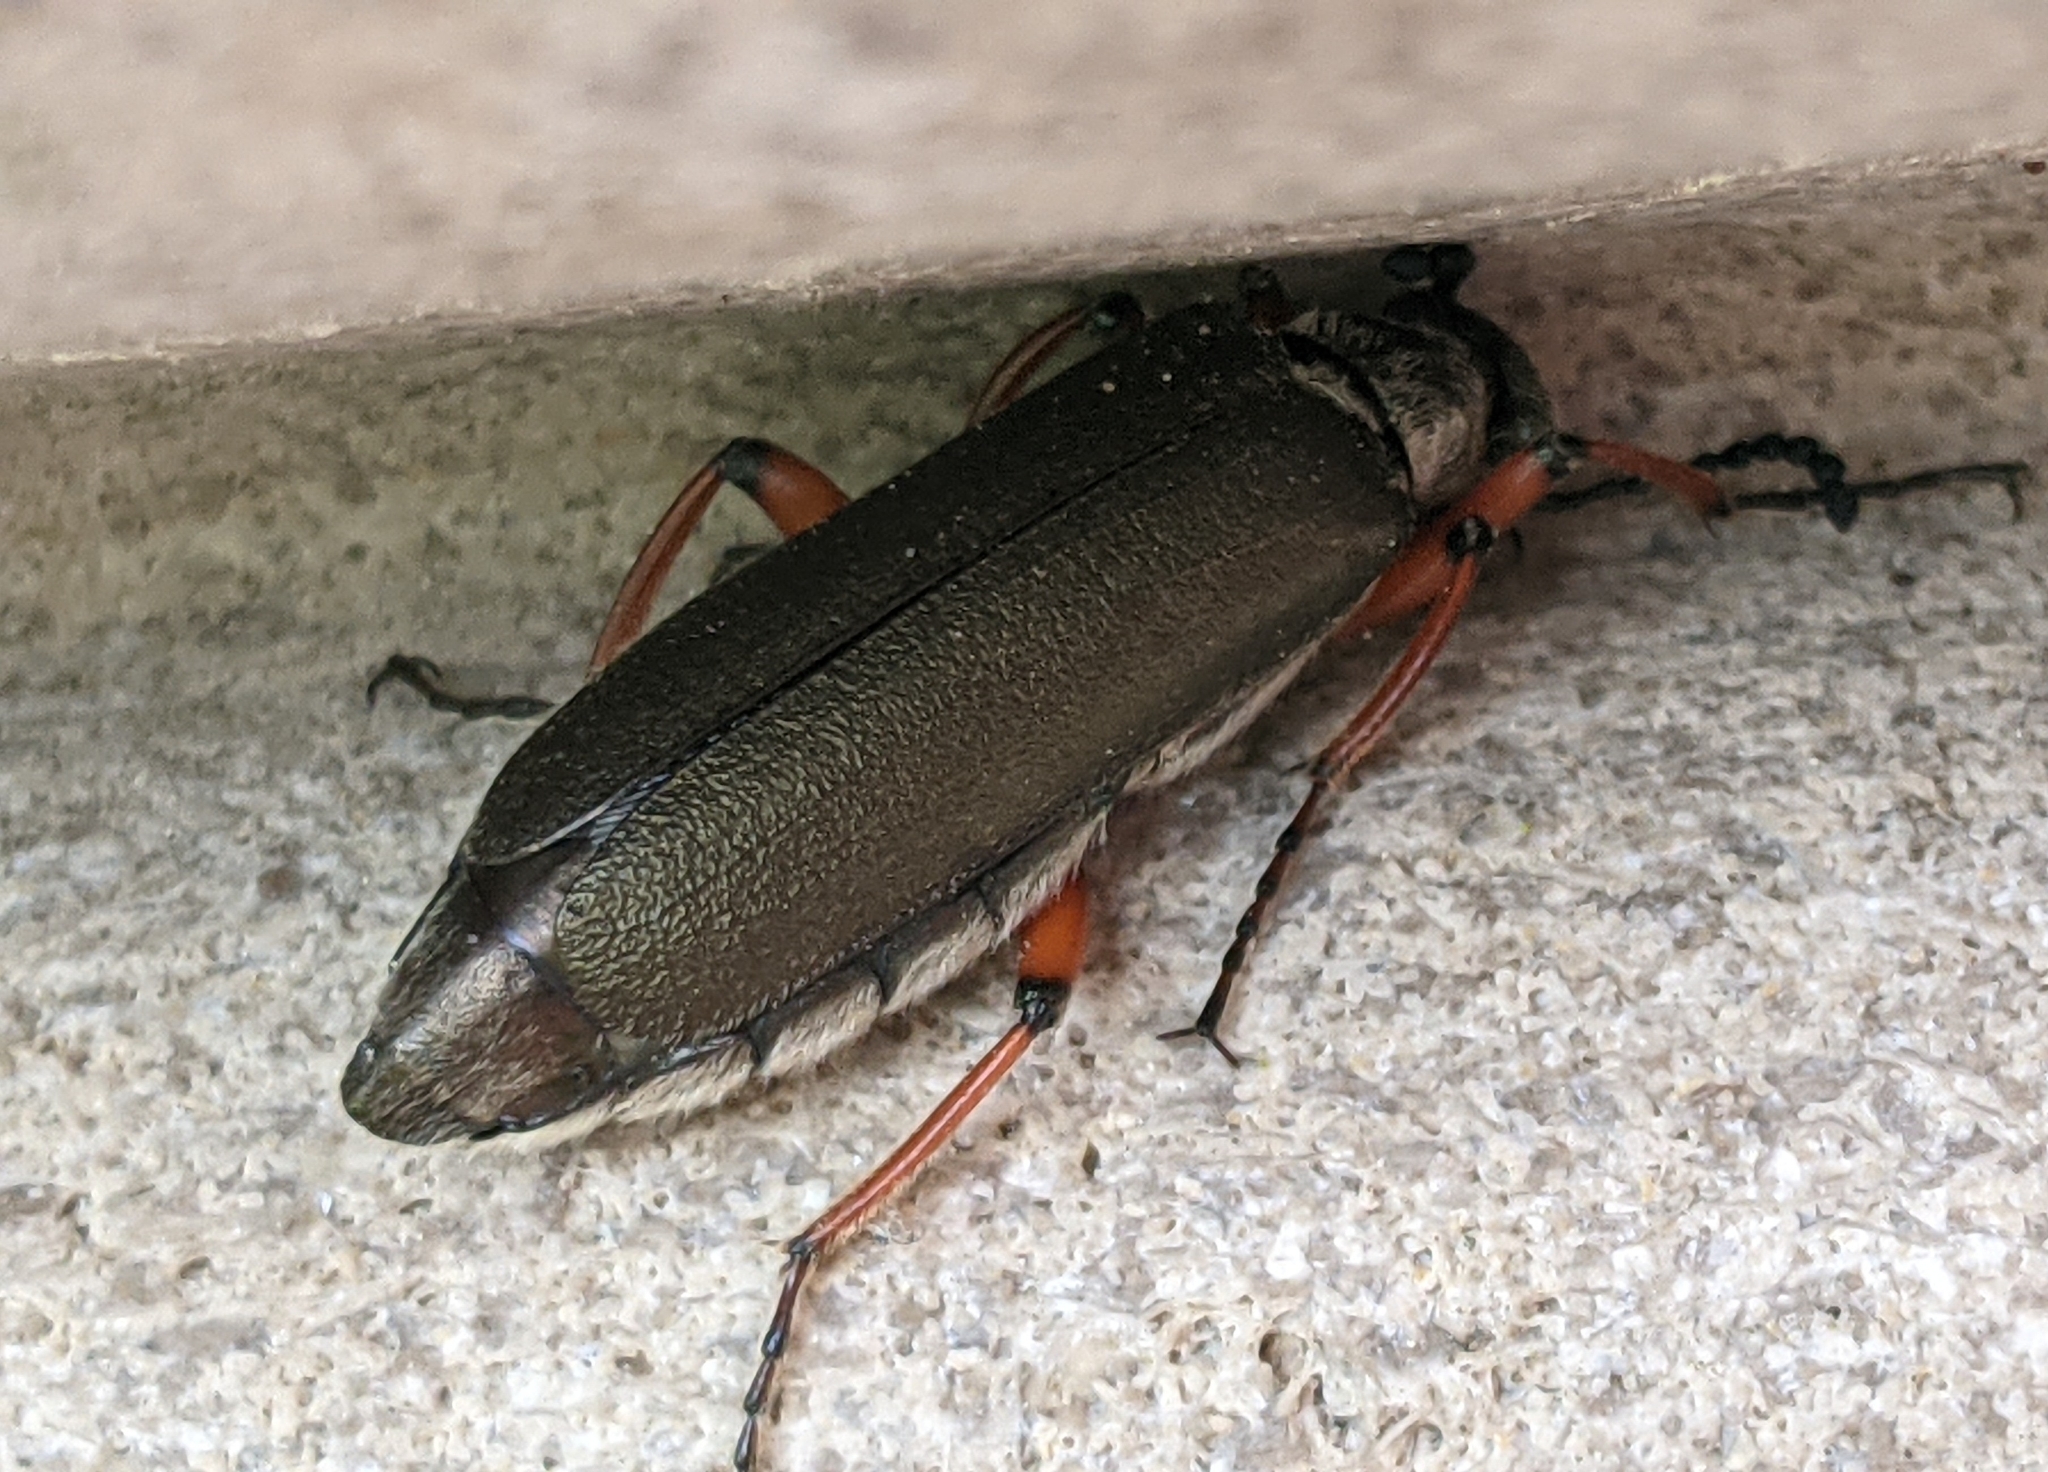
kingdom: Animalia
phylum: Arthropoda
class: Insecta
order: Coleoptera
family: Meloidae
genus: Lytta
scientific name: Lytta aenea
